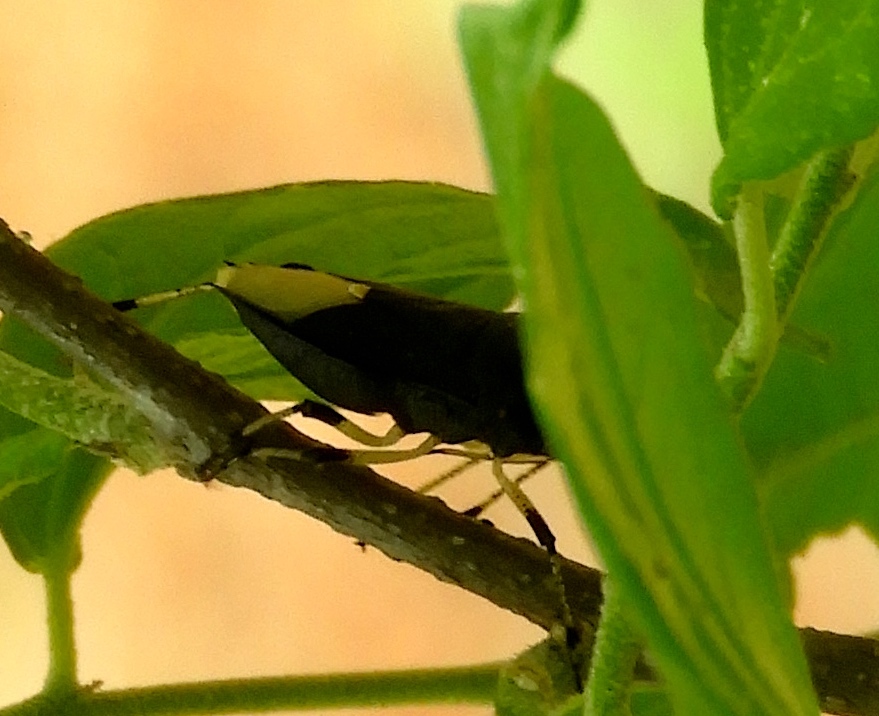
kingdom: Animalia
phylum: Arthropoda
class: Insecta
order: Hemiptera
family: Pentatomidae
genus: Proxys
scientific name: Proxys punctulatus
